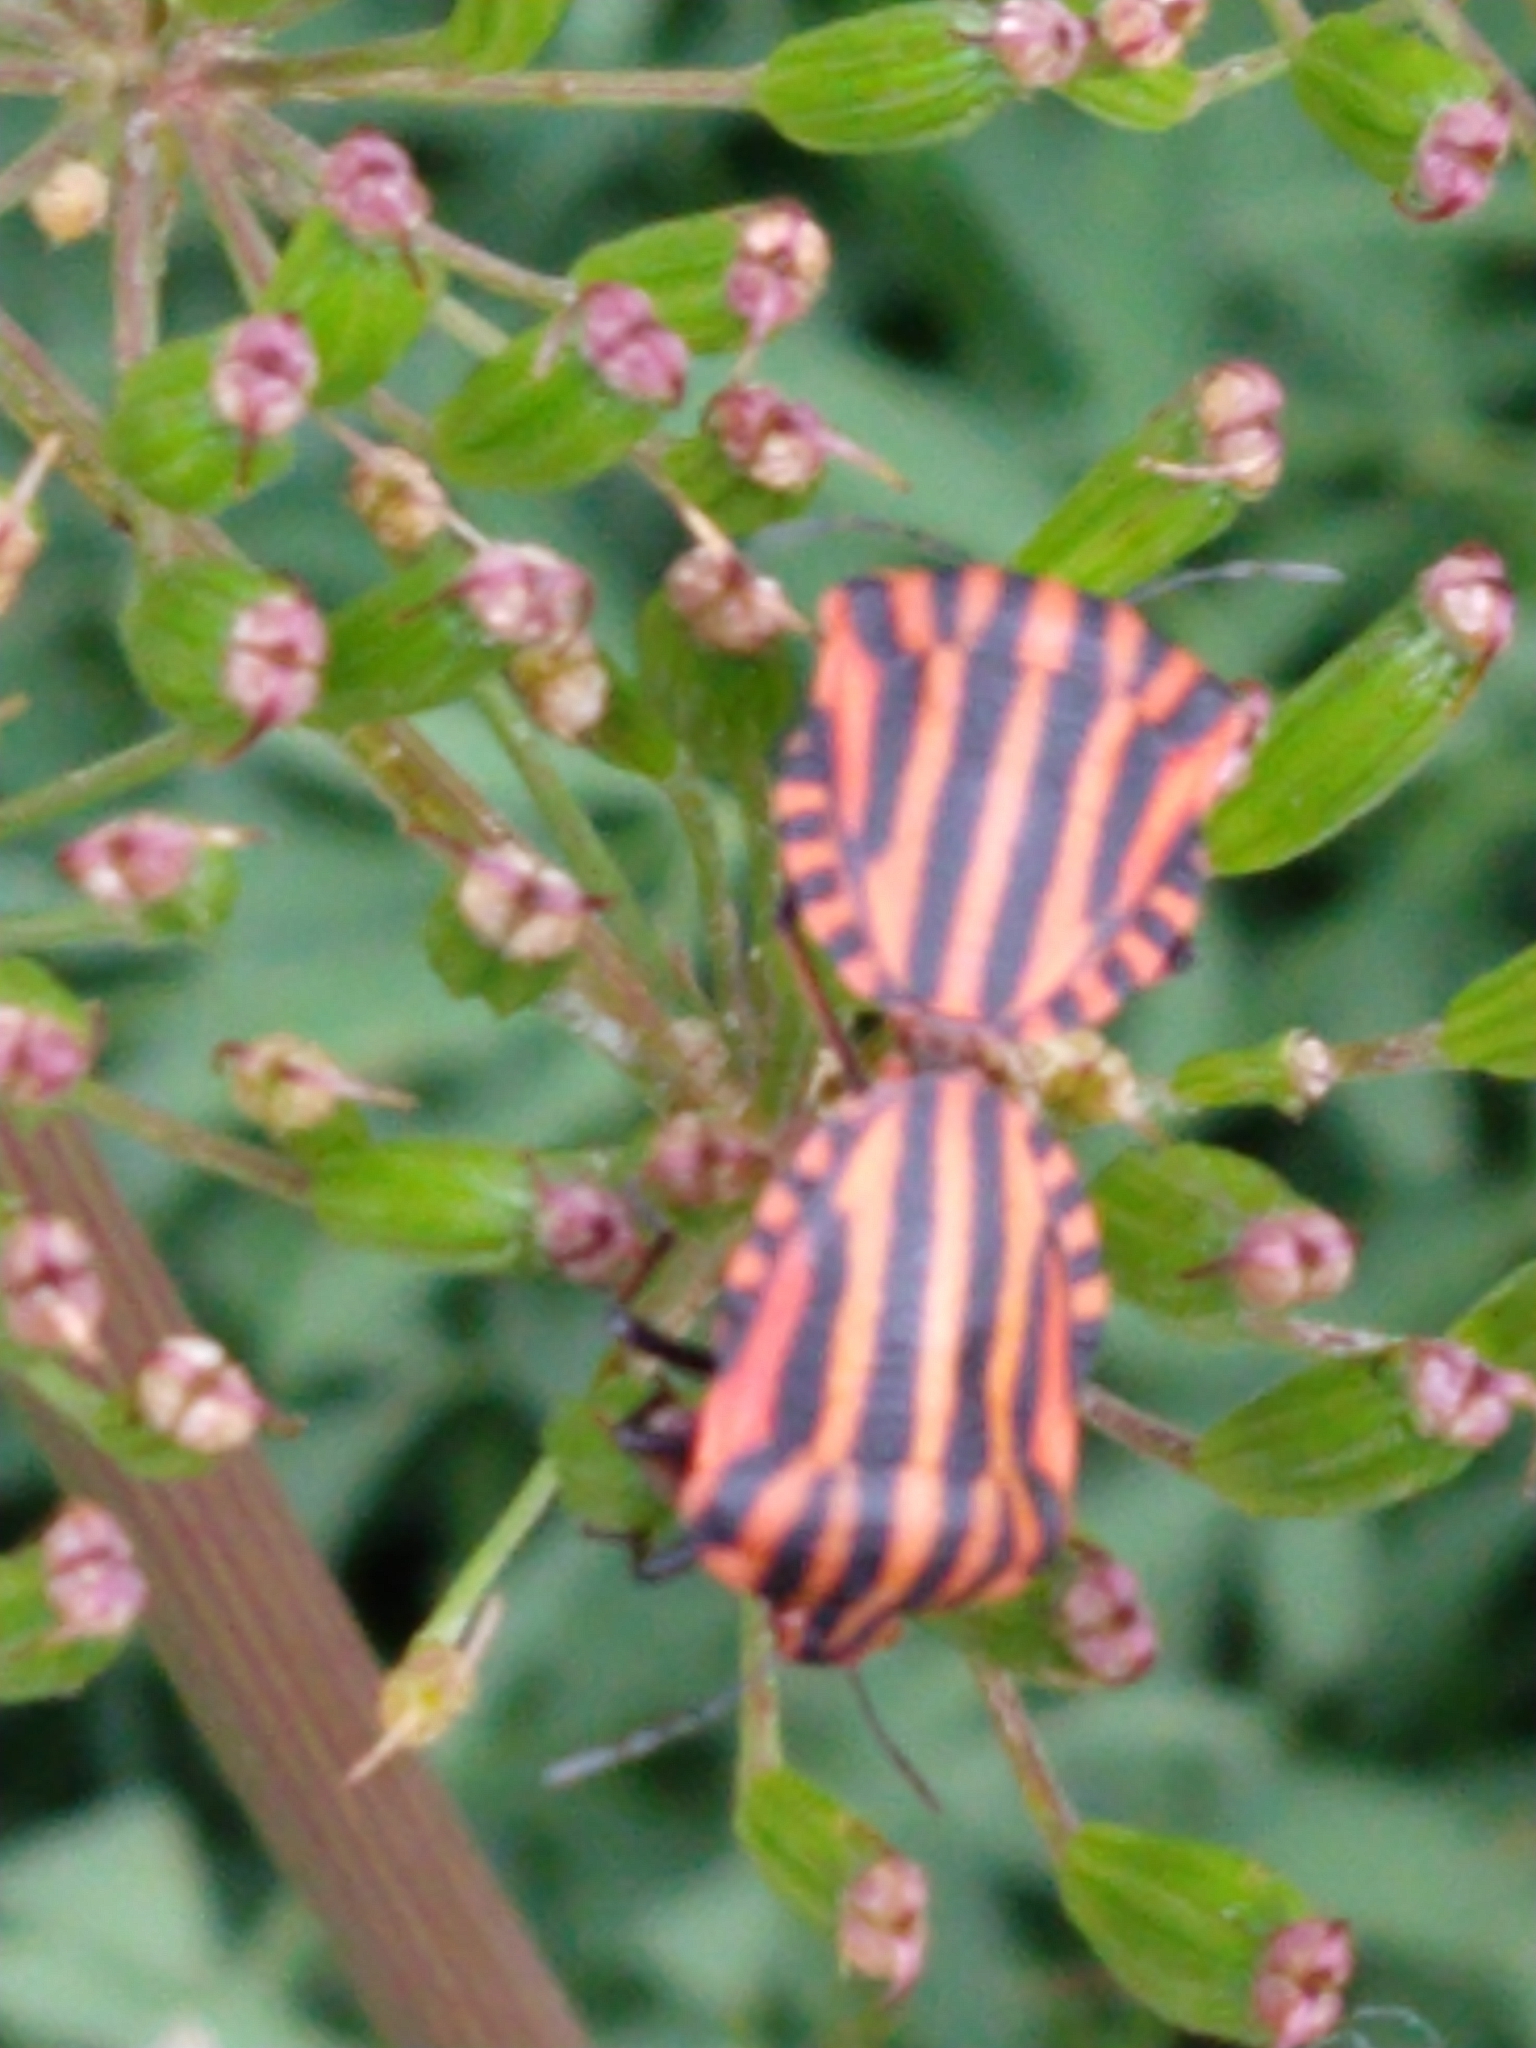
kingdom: Animalia
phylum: Arthropoda
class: Insecta
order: Hemiptera
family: Pentatomidae
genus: Graphosoma
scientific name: Graphosoma italicum
